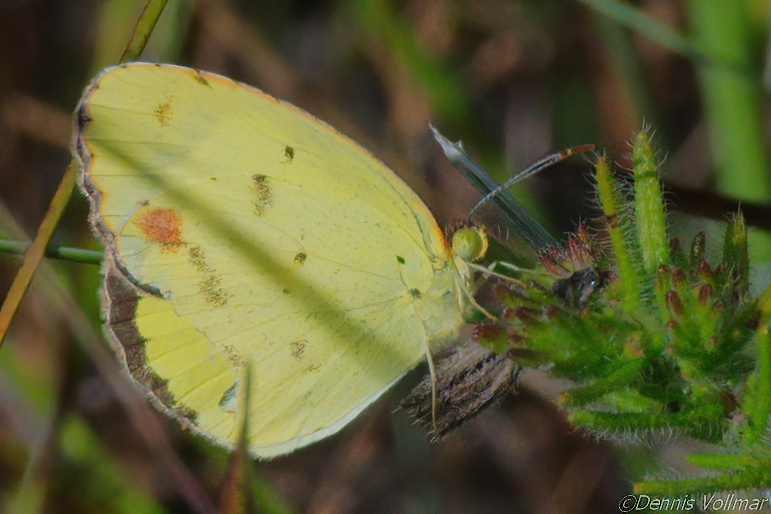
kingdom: Animalia
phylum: Arthropoda
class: Insecta
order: Lepidoptera
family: Pieridae
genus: Pyrisitia
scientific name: Pyrisitia lisa
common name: Little yellow
